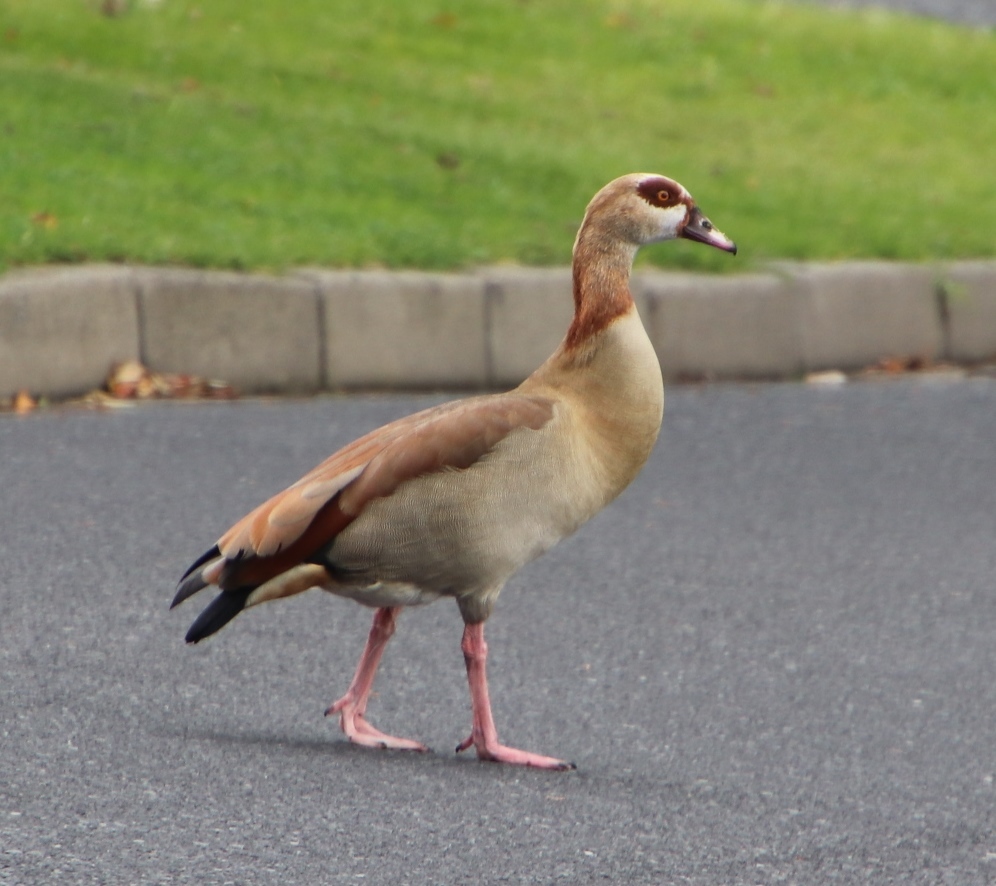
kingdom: Animalia
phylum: Chordata
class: Aves
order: Anseriformes
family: Anatidae
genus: Alopochen
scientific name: Alopochen aegyptiaca
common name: Egyptian goose
